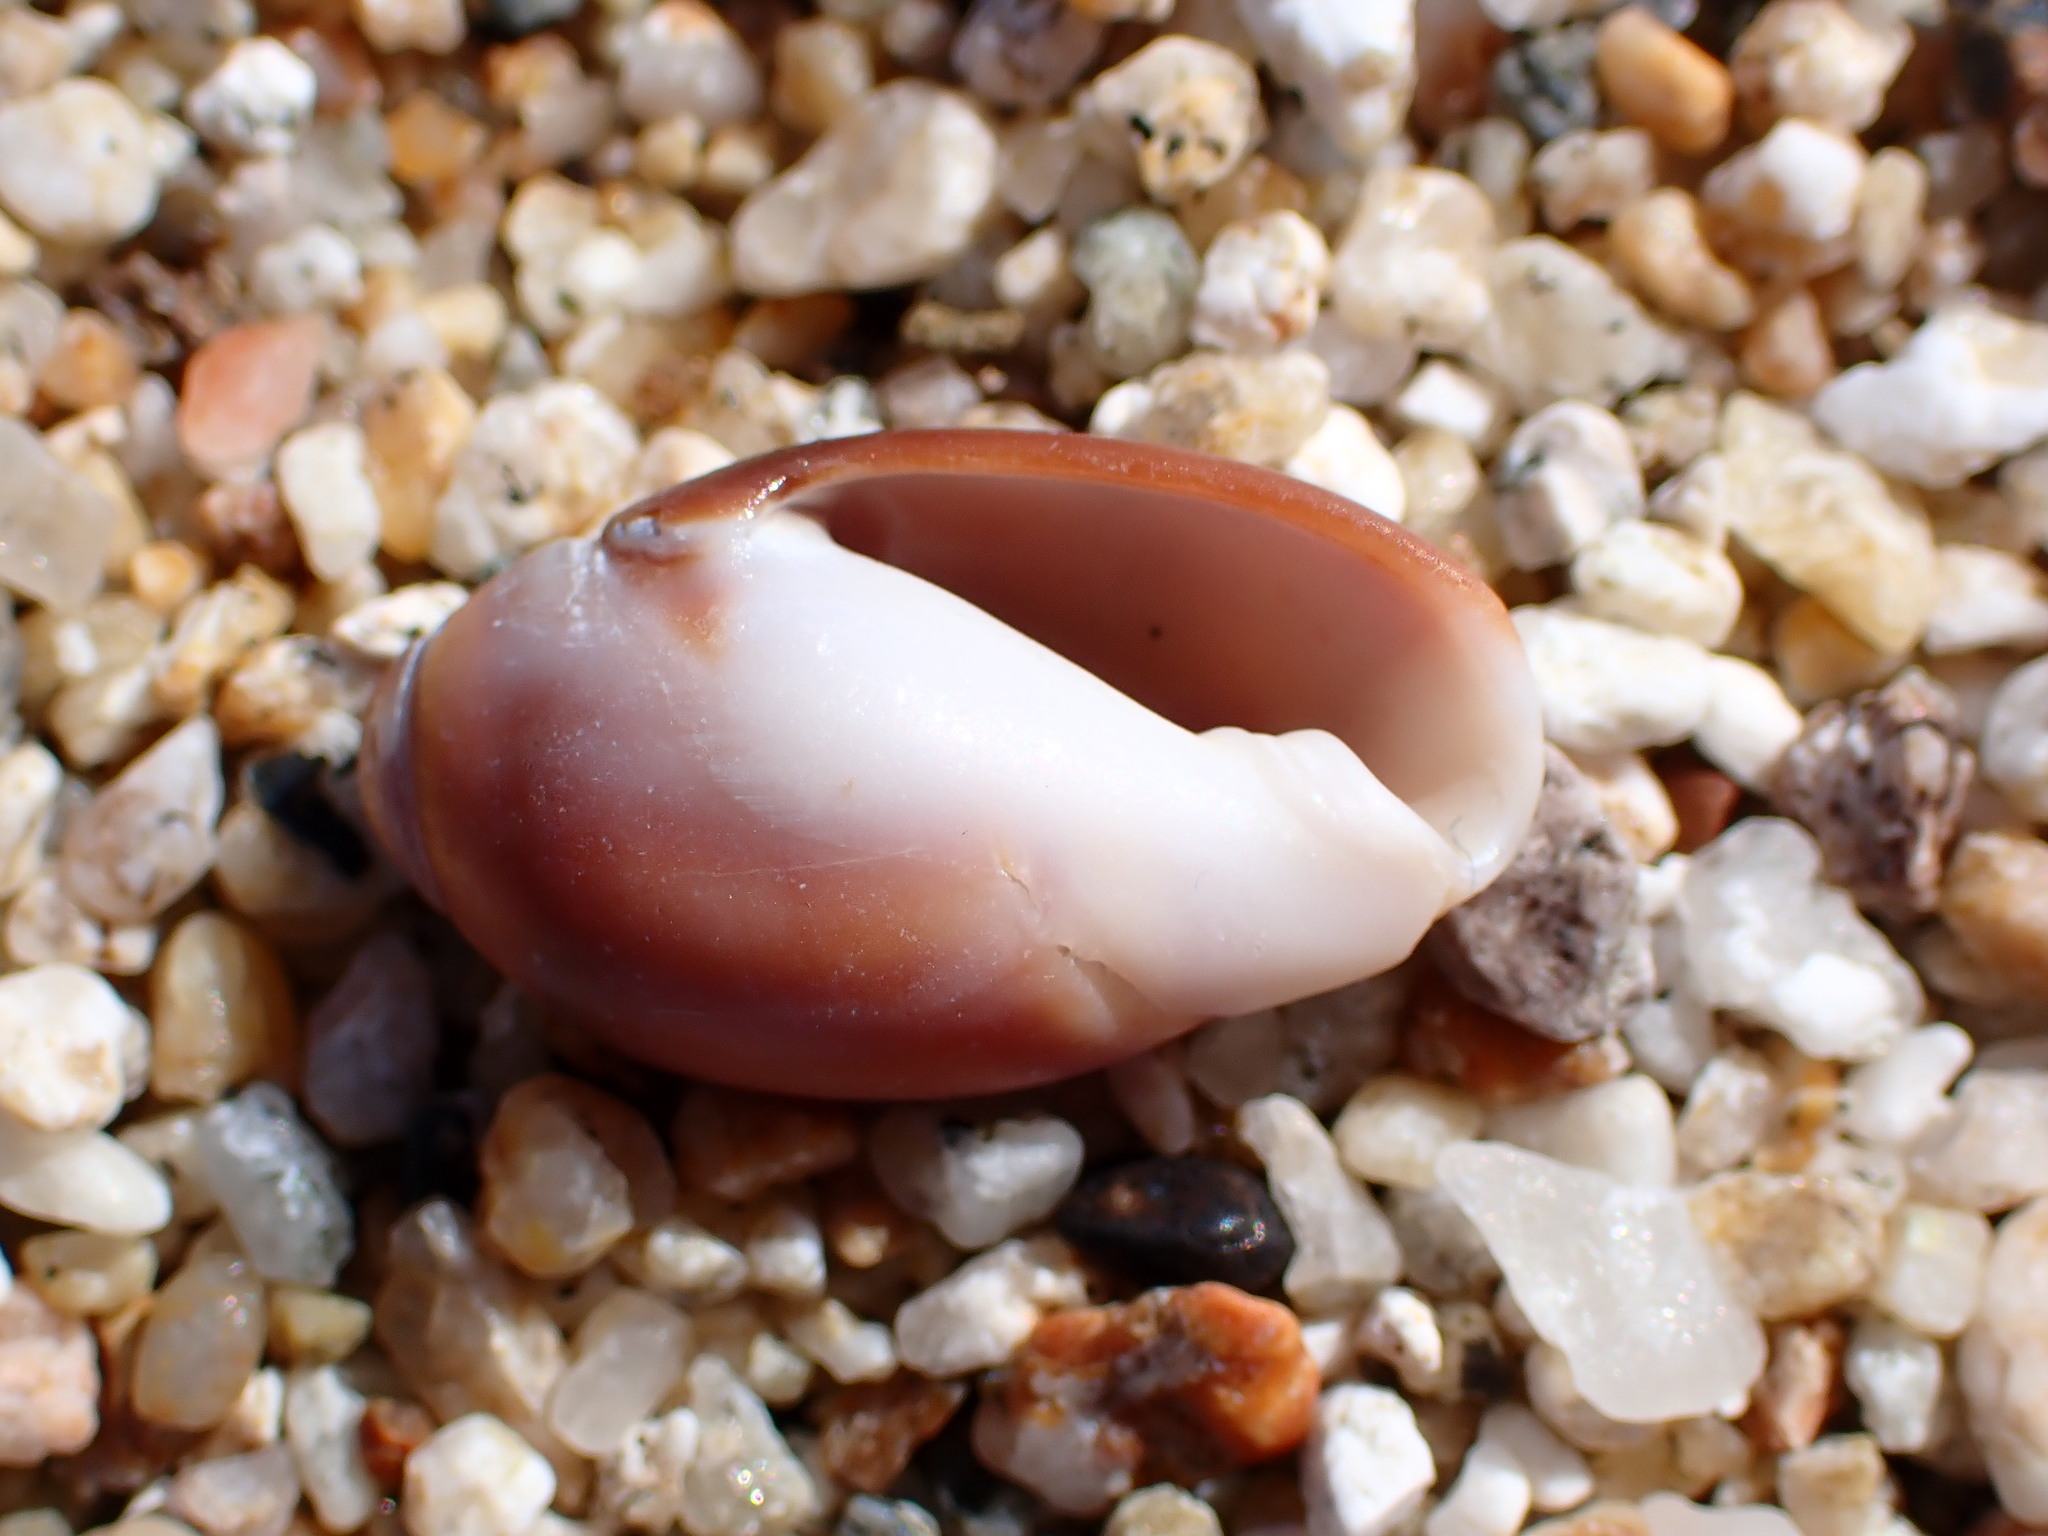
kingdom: Animalia
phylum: Mollusca
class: Gastropoda
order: Neogastropoda
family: Olividae
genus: Callianax
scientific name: Callianax biplicata
